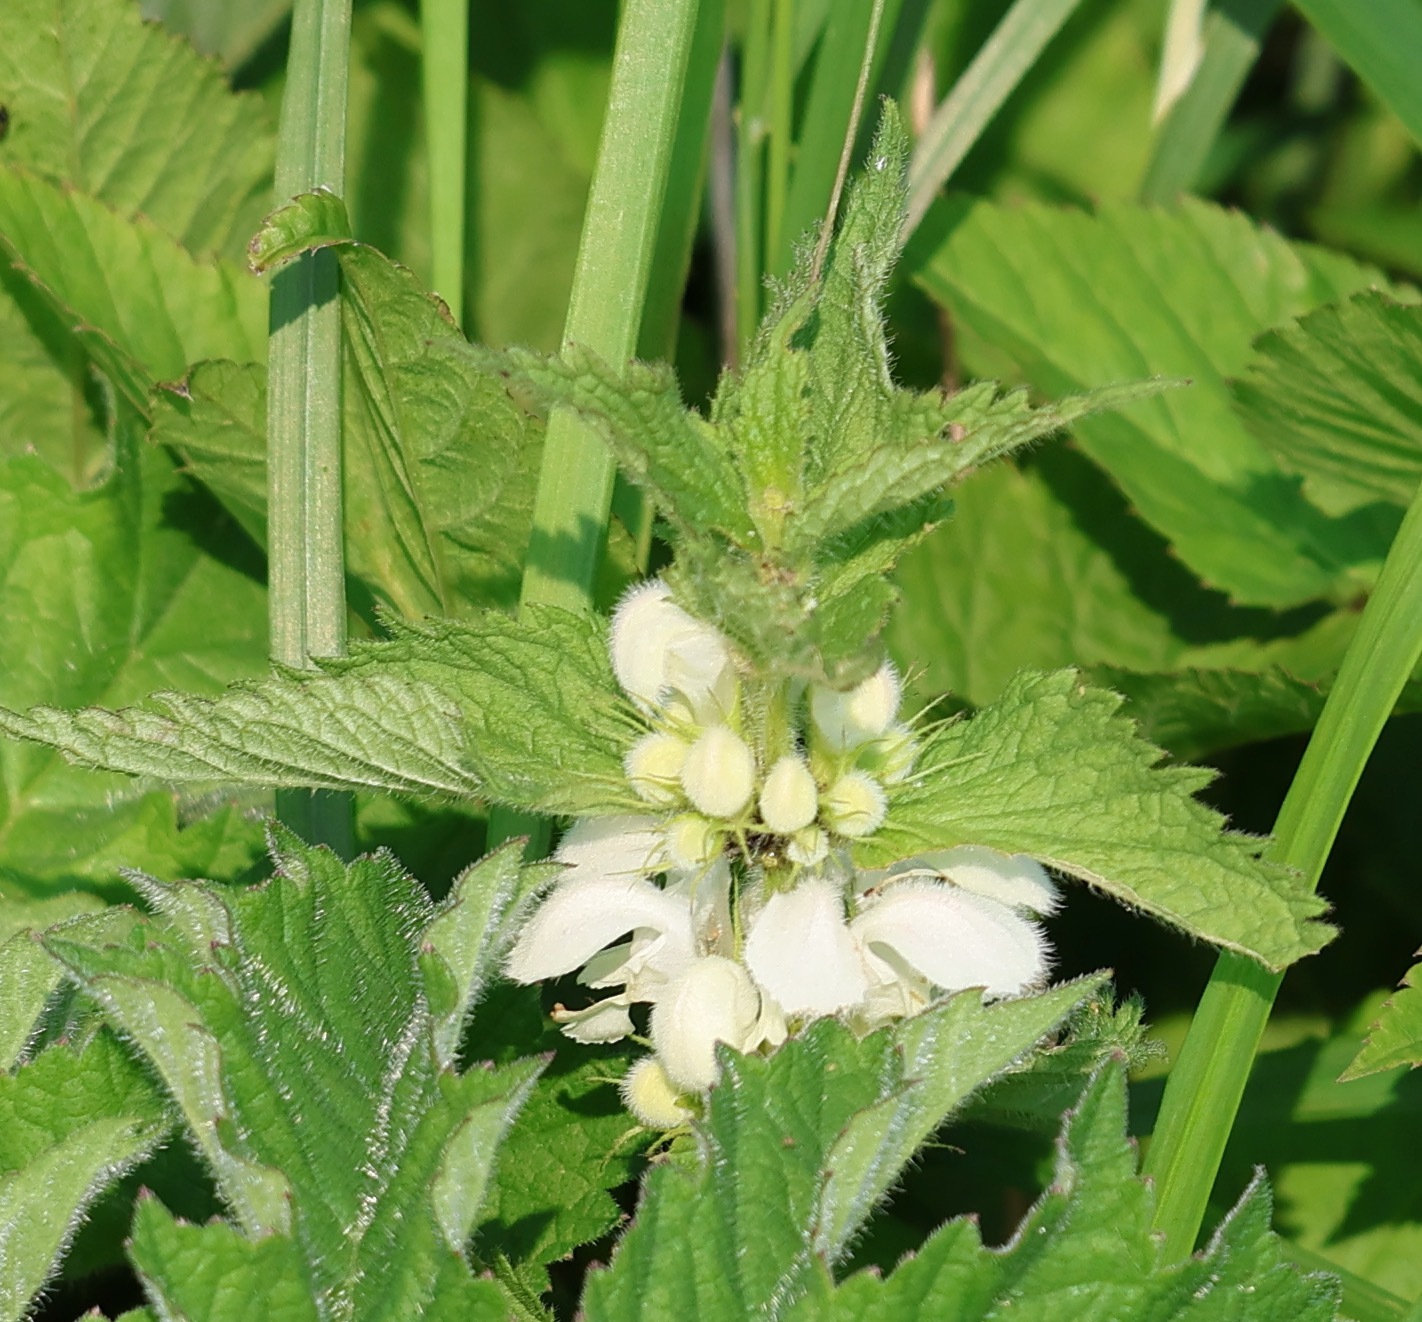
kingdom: Plantae
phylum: Tracheophyta
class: Magnoliopsida
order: Lamiales
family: Lamiaceae
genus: Lamium
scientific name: Lamium album
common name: White dead-nettle
